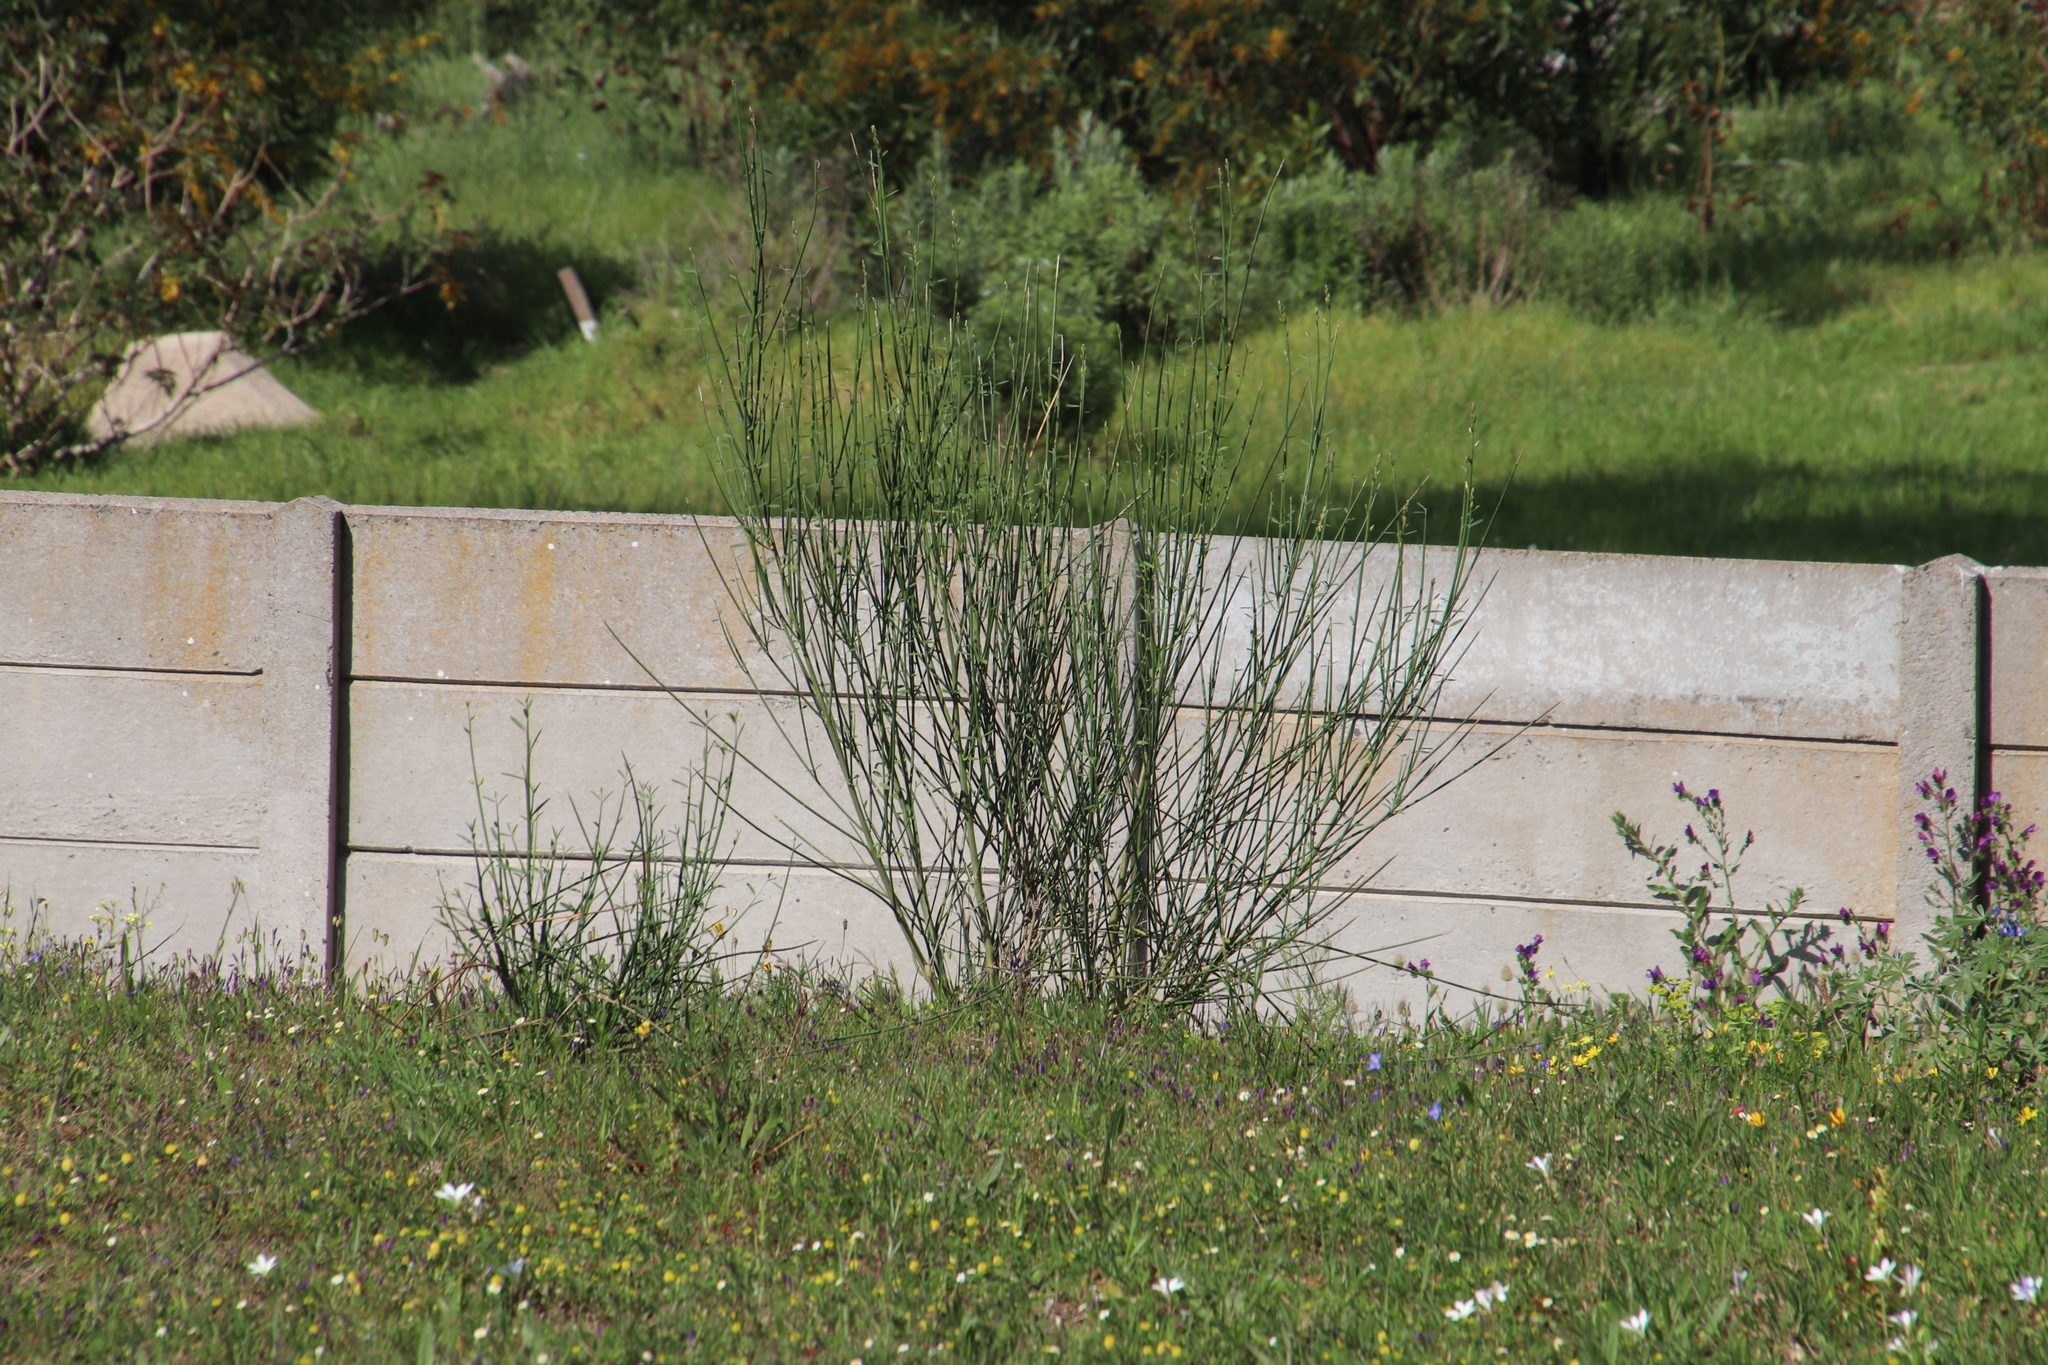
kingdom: Plantae
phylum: Tracheophyta
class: Magnoliopsida
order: Fabales
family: Fabaceae
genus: Spartium
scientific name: Spartium junceum
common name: Spanish broom
